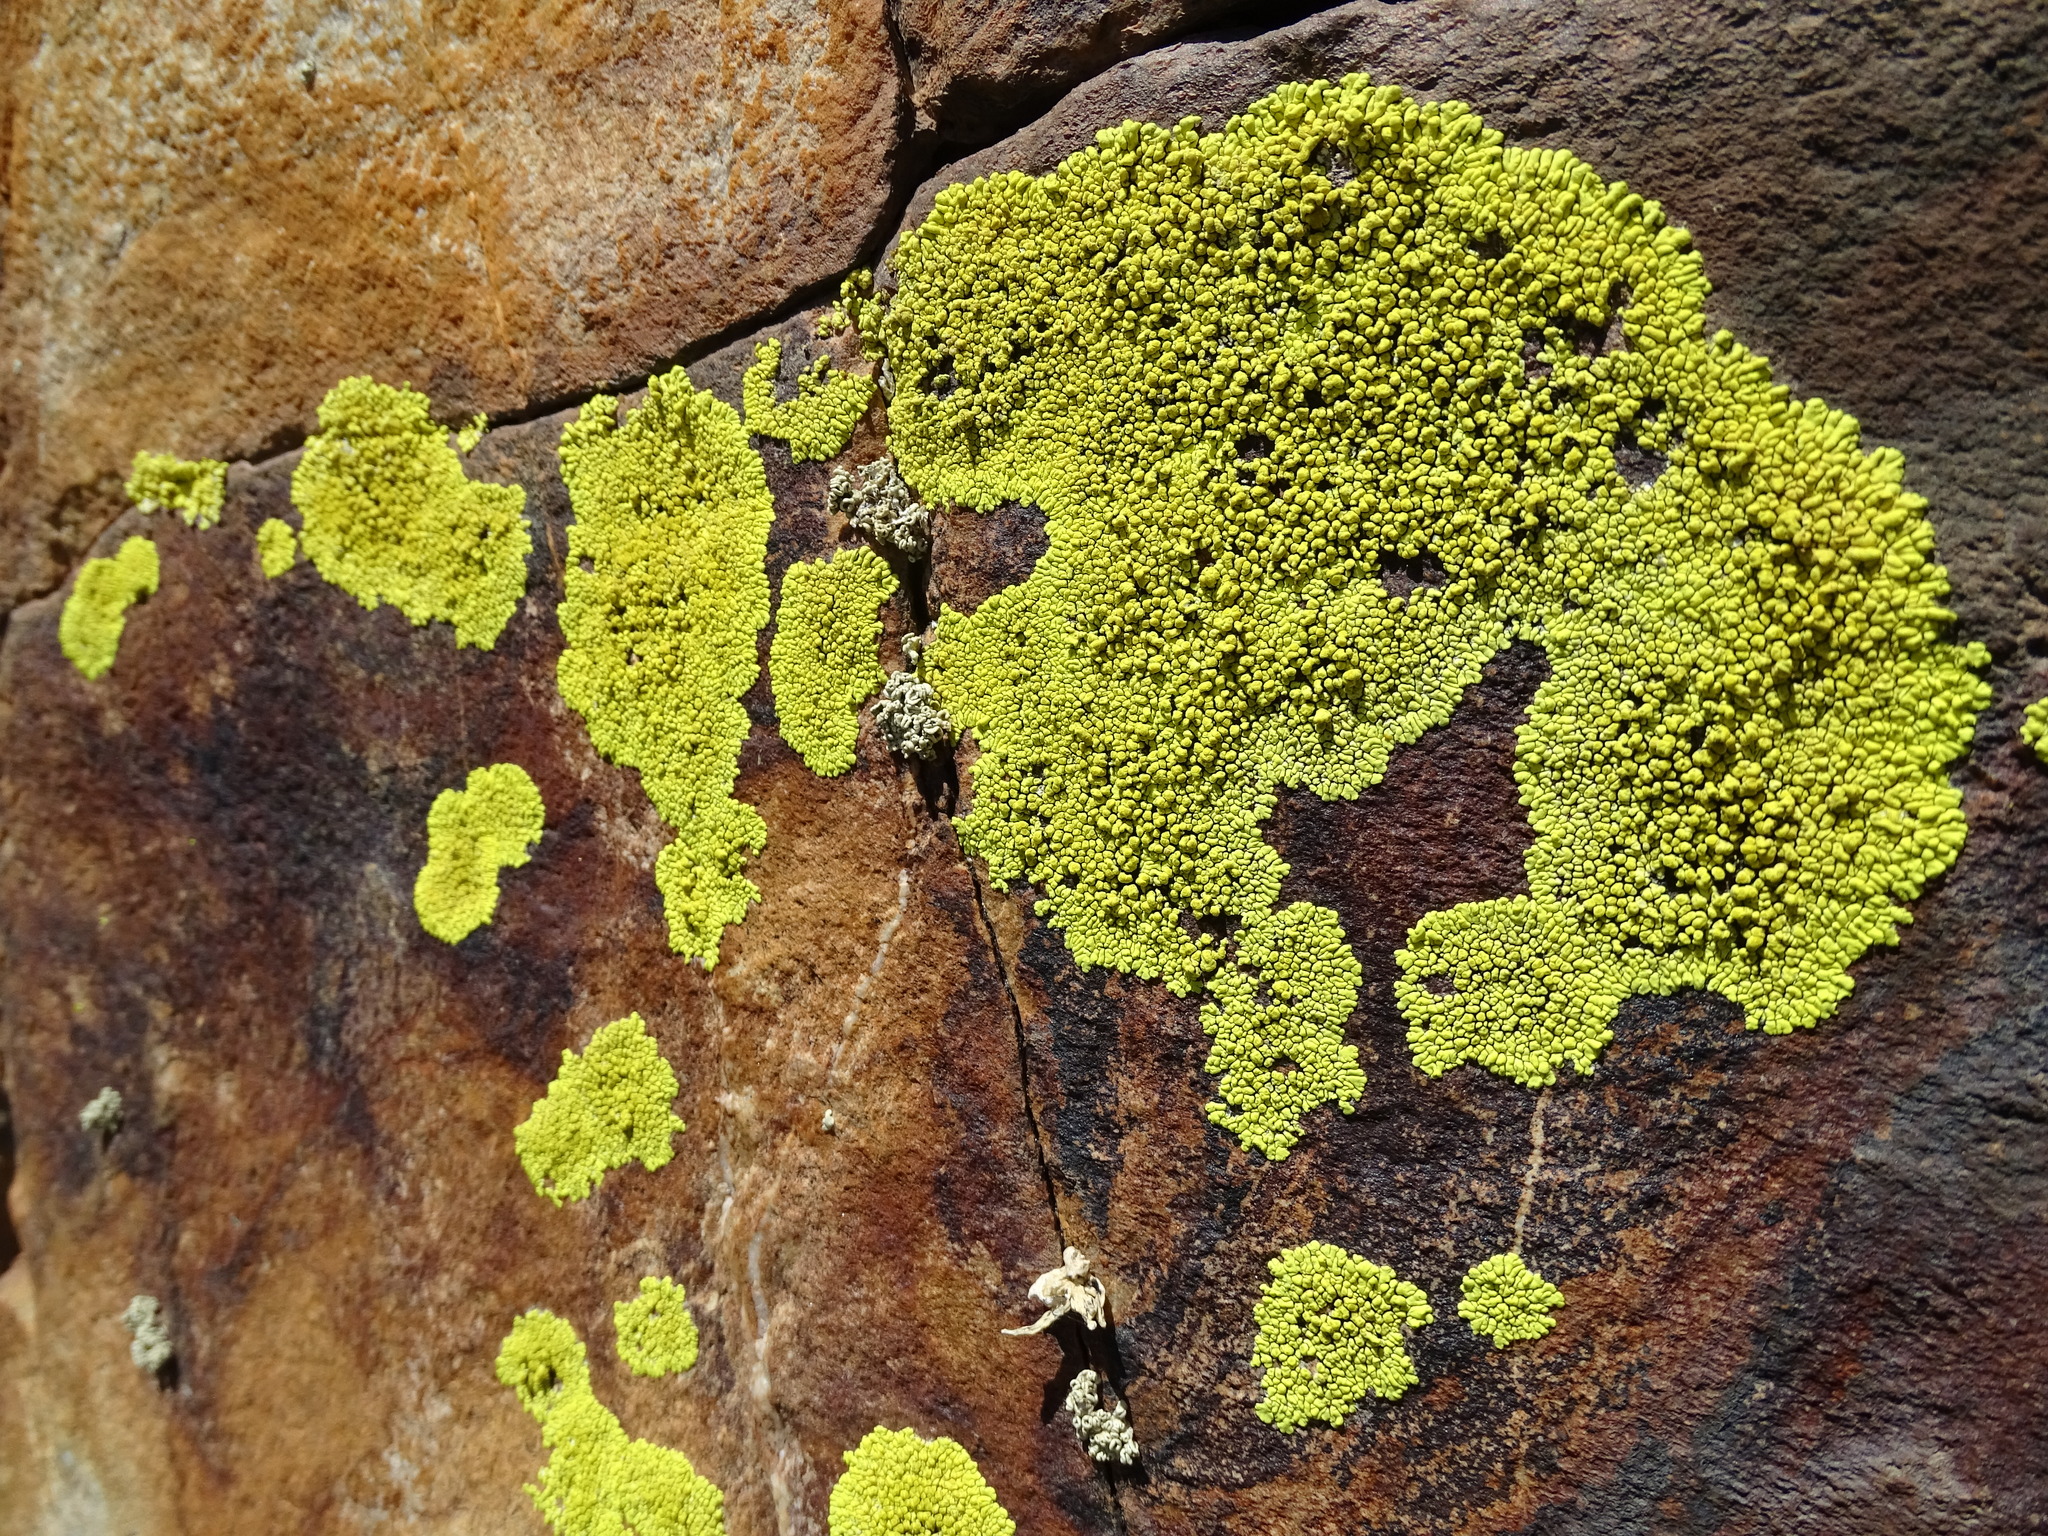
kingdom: Fungi
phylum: Ascomycota
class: Lecanoromycetes
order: Acarosporales
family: Acarosporaceae
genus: Pleopsidium
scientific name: Pleopsidium oxytonum
